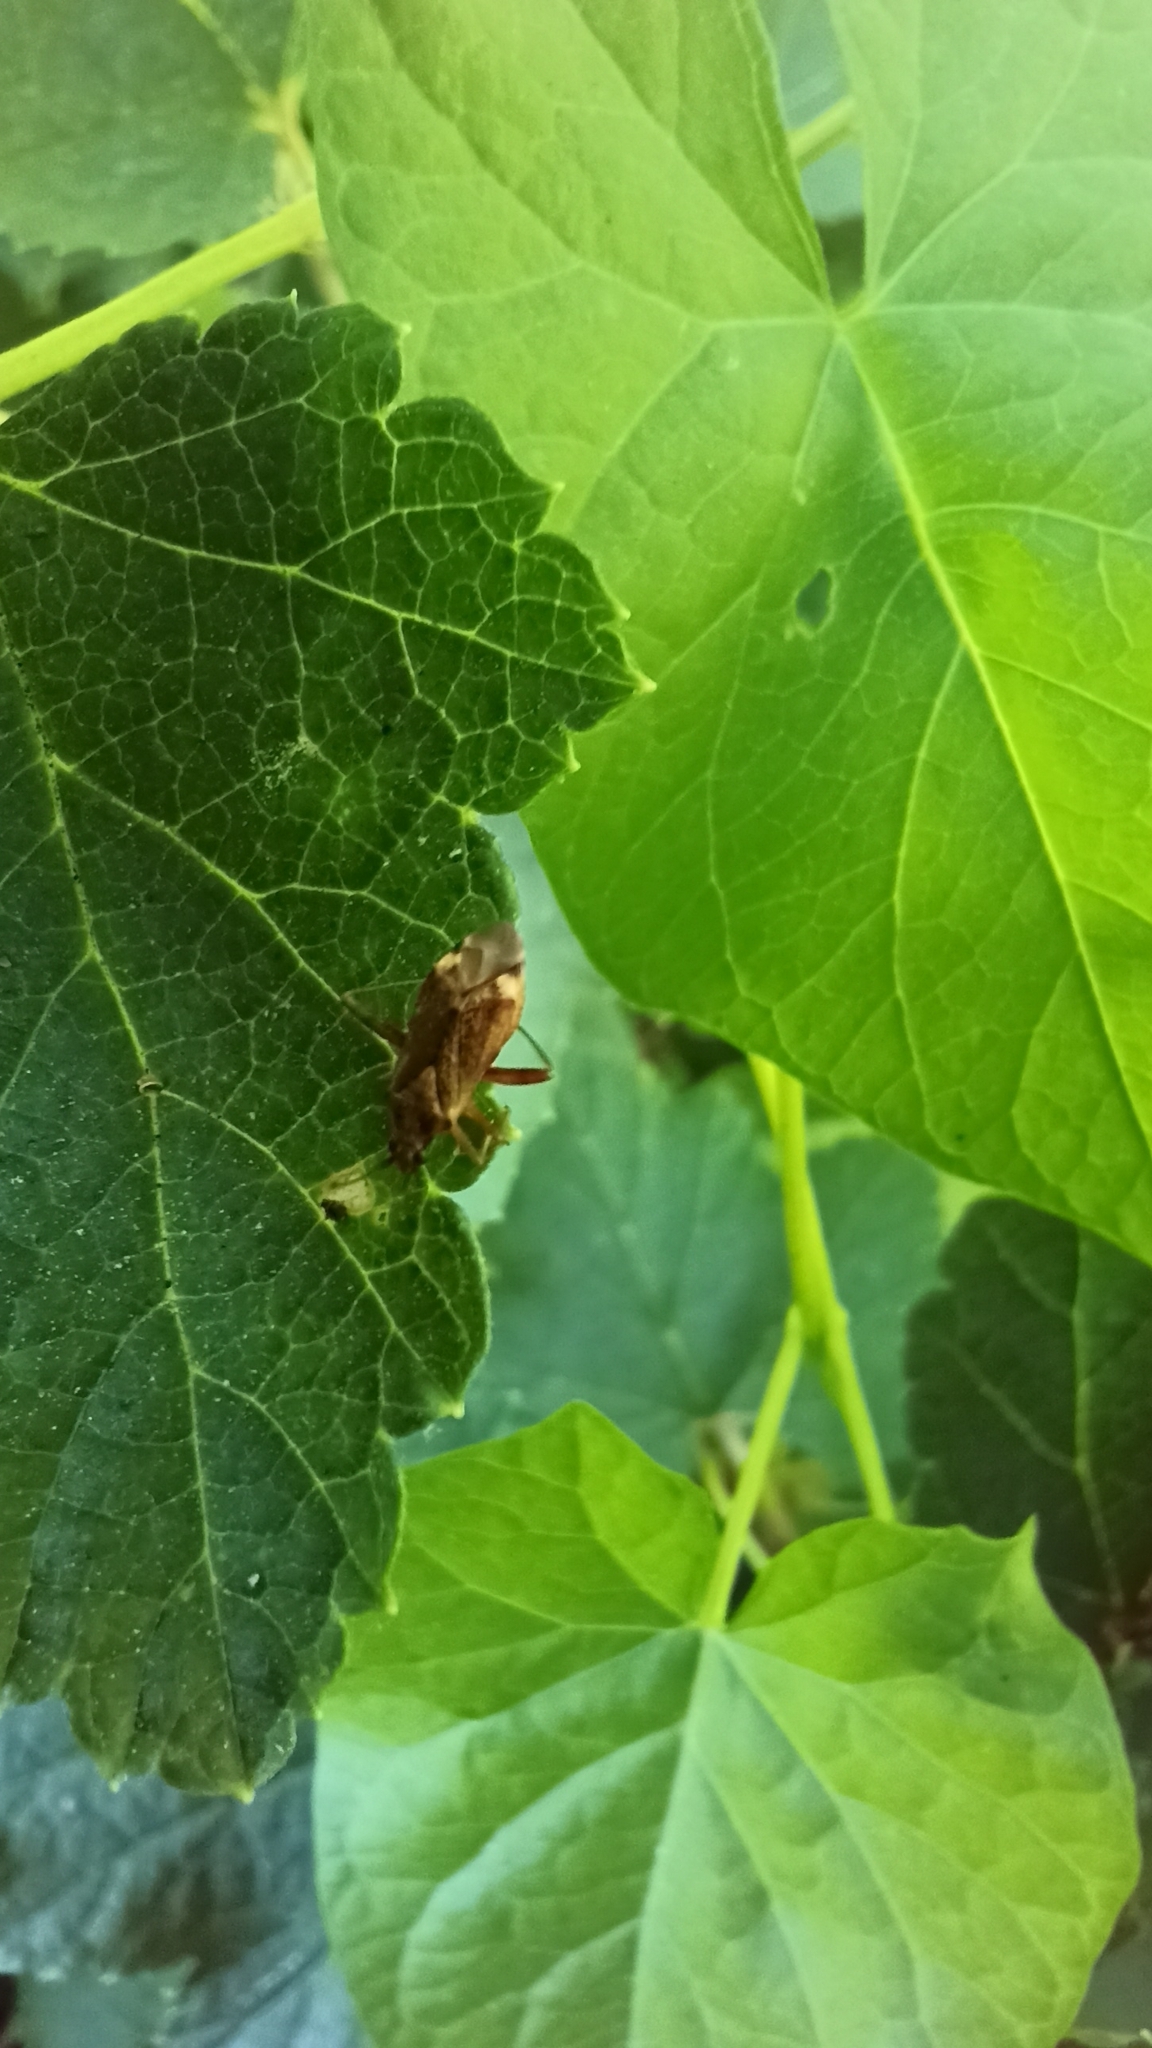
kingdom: Animalia
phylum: Arthropoda
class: Insecta
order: Hemiptera
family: Miridae
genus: Closterotomus
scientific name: Closterotomus fulvomaculatus
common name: Spotted plant bug
